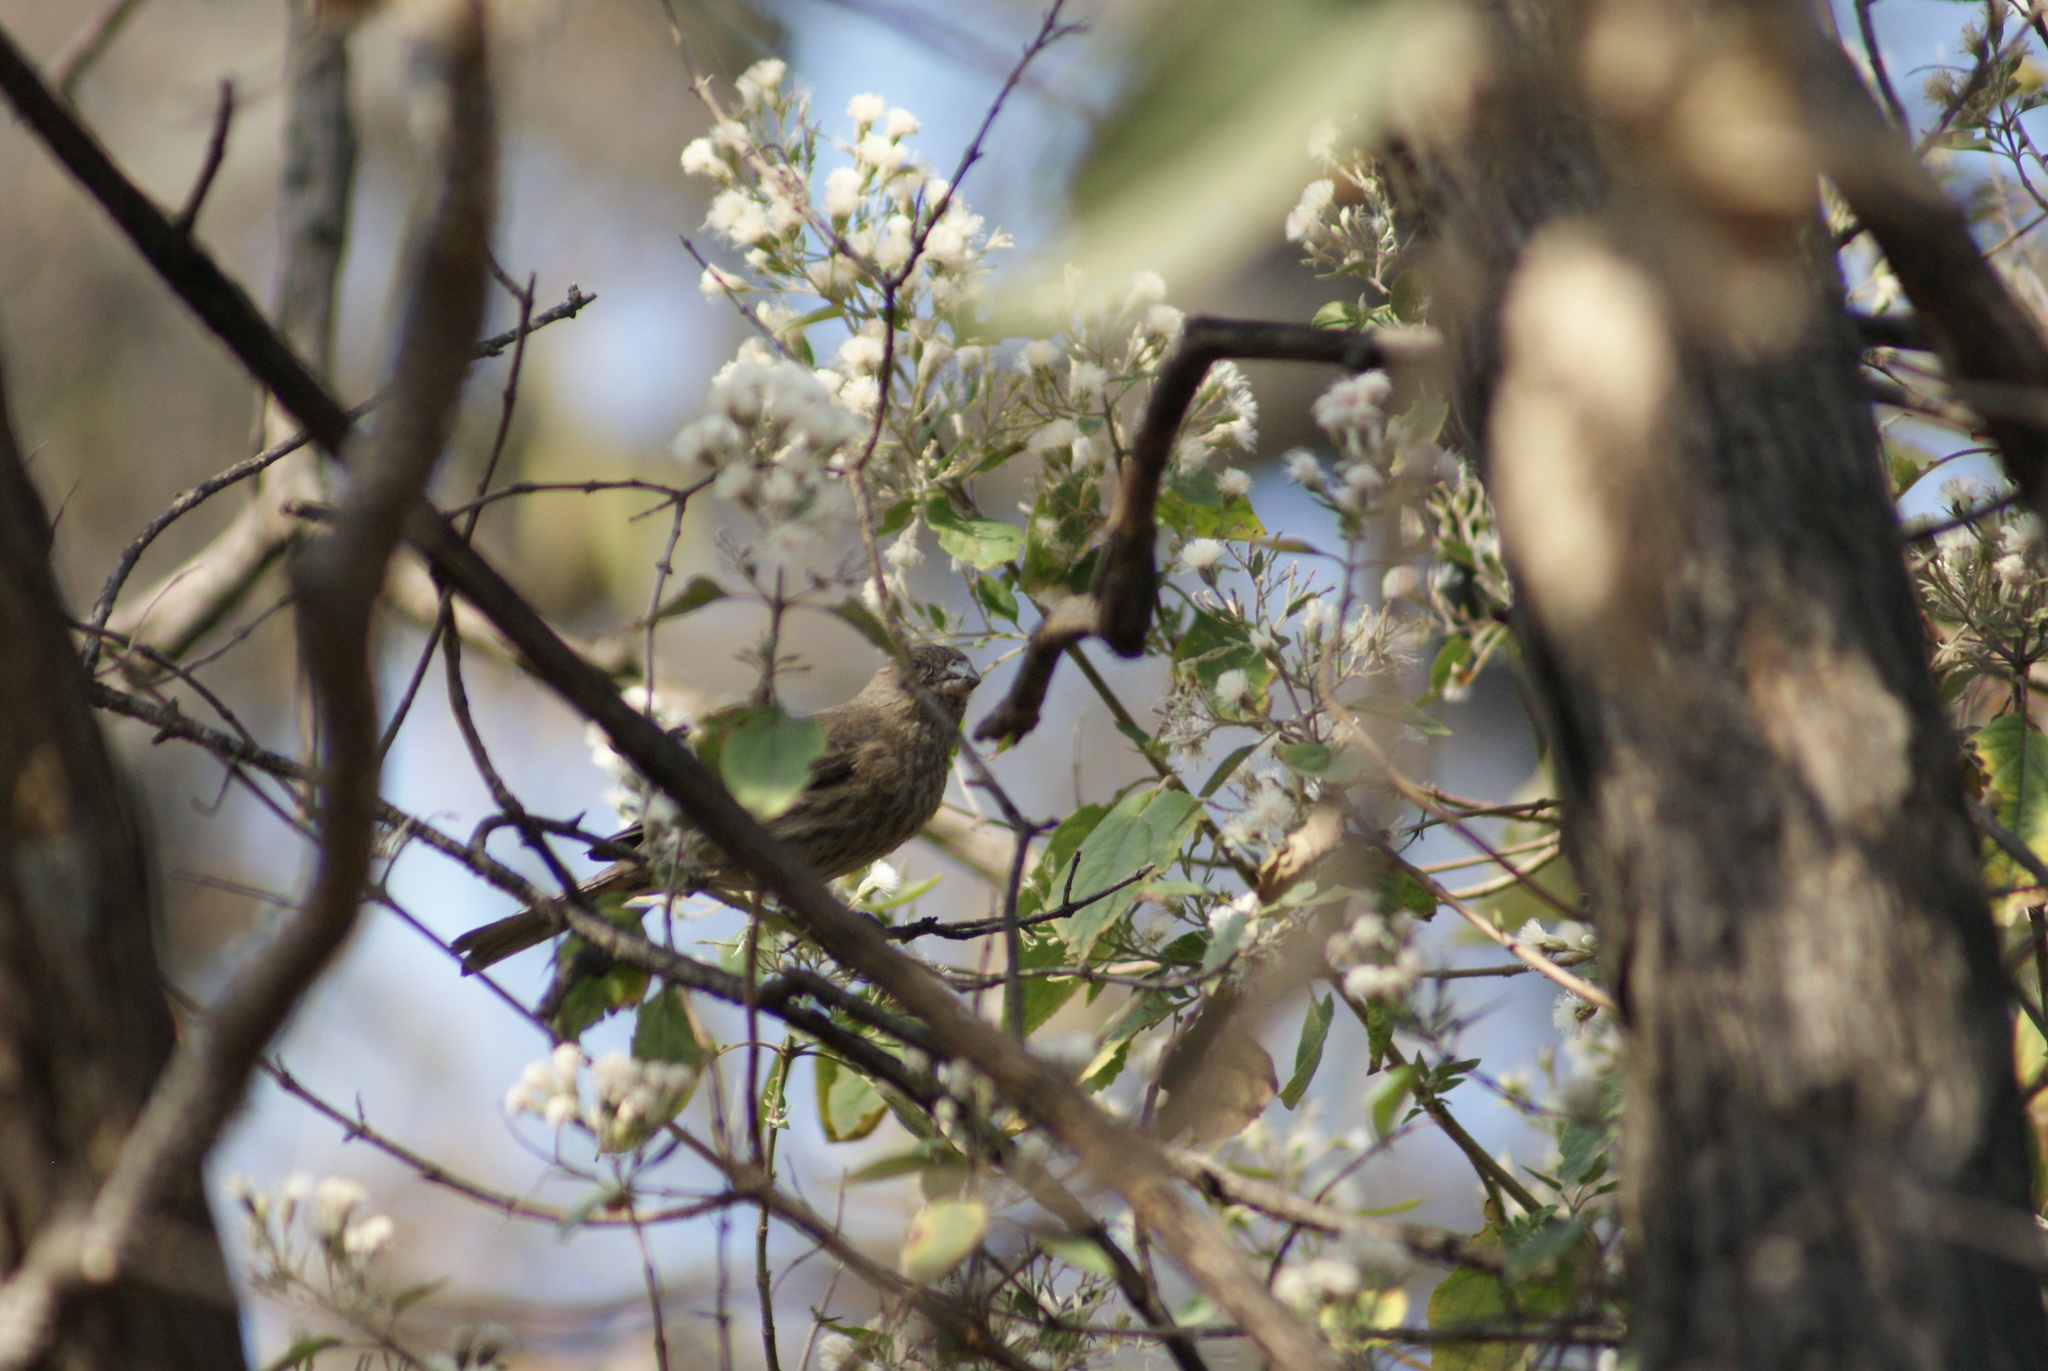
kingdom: Animalia
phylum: Chordata
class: Aves
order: Passeriformes
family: Fringillidae
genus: Haemorhous
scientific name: Haemorhous mexicanus
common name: House finch
